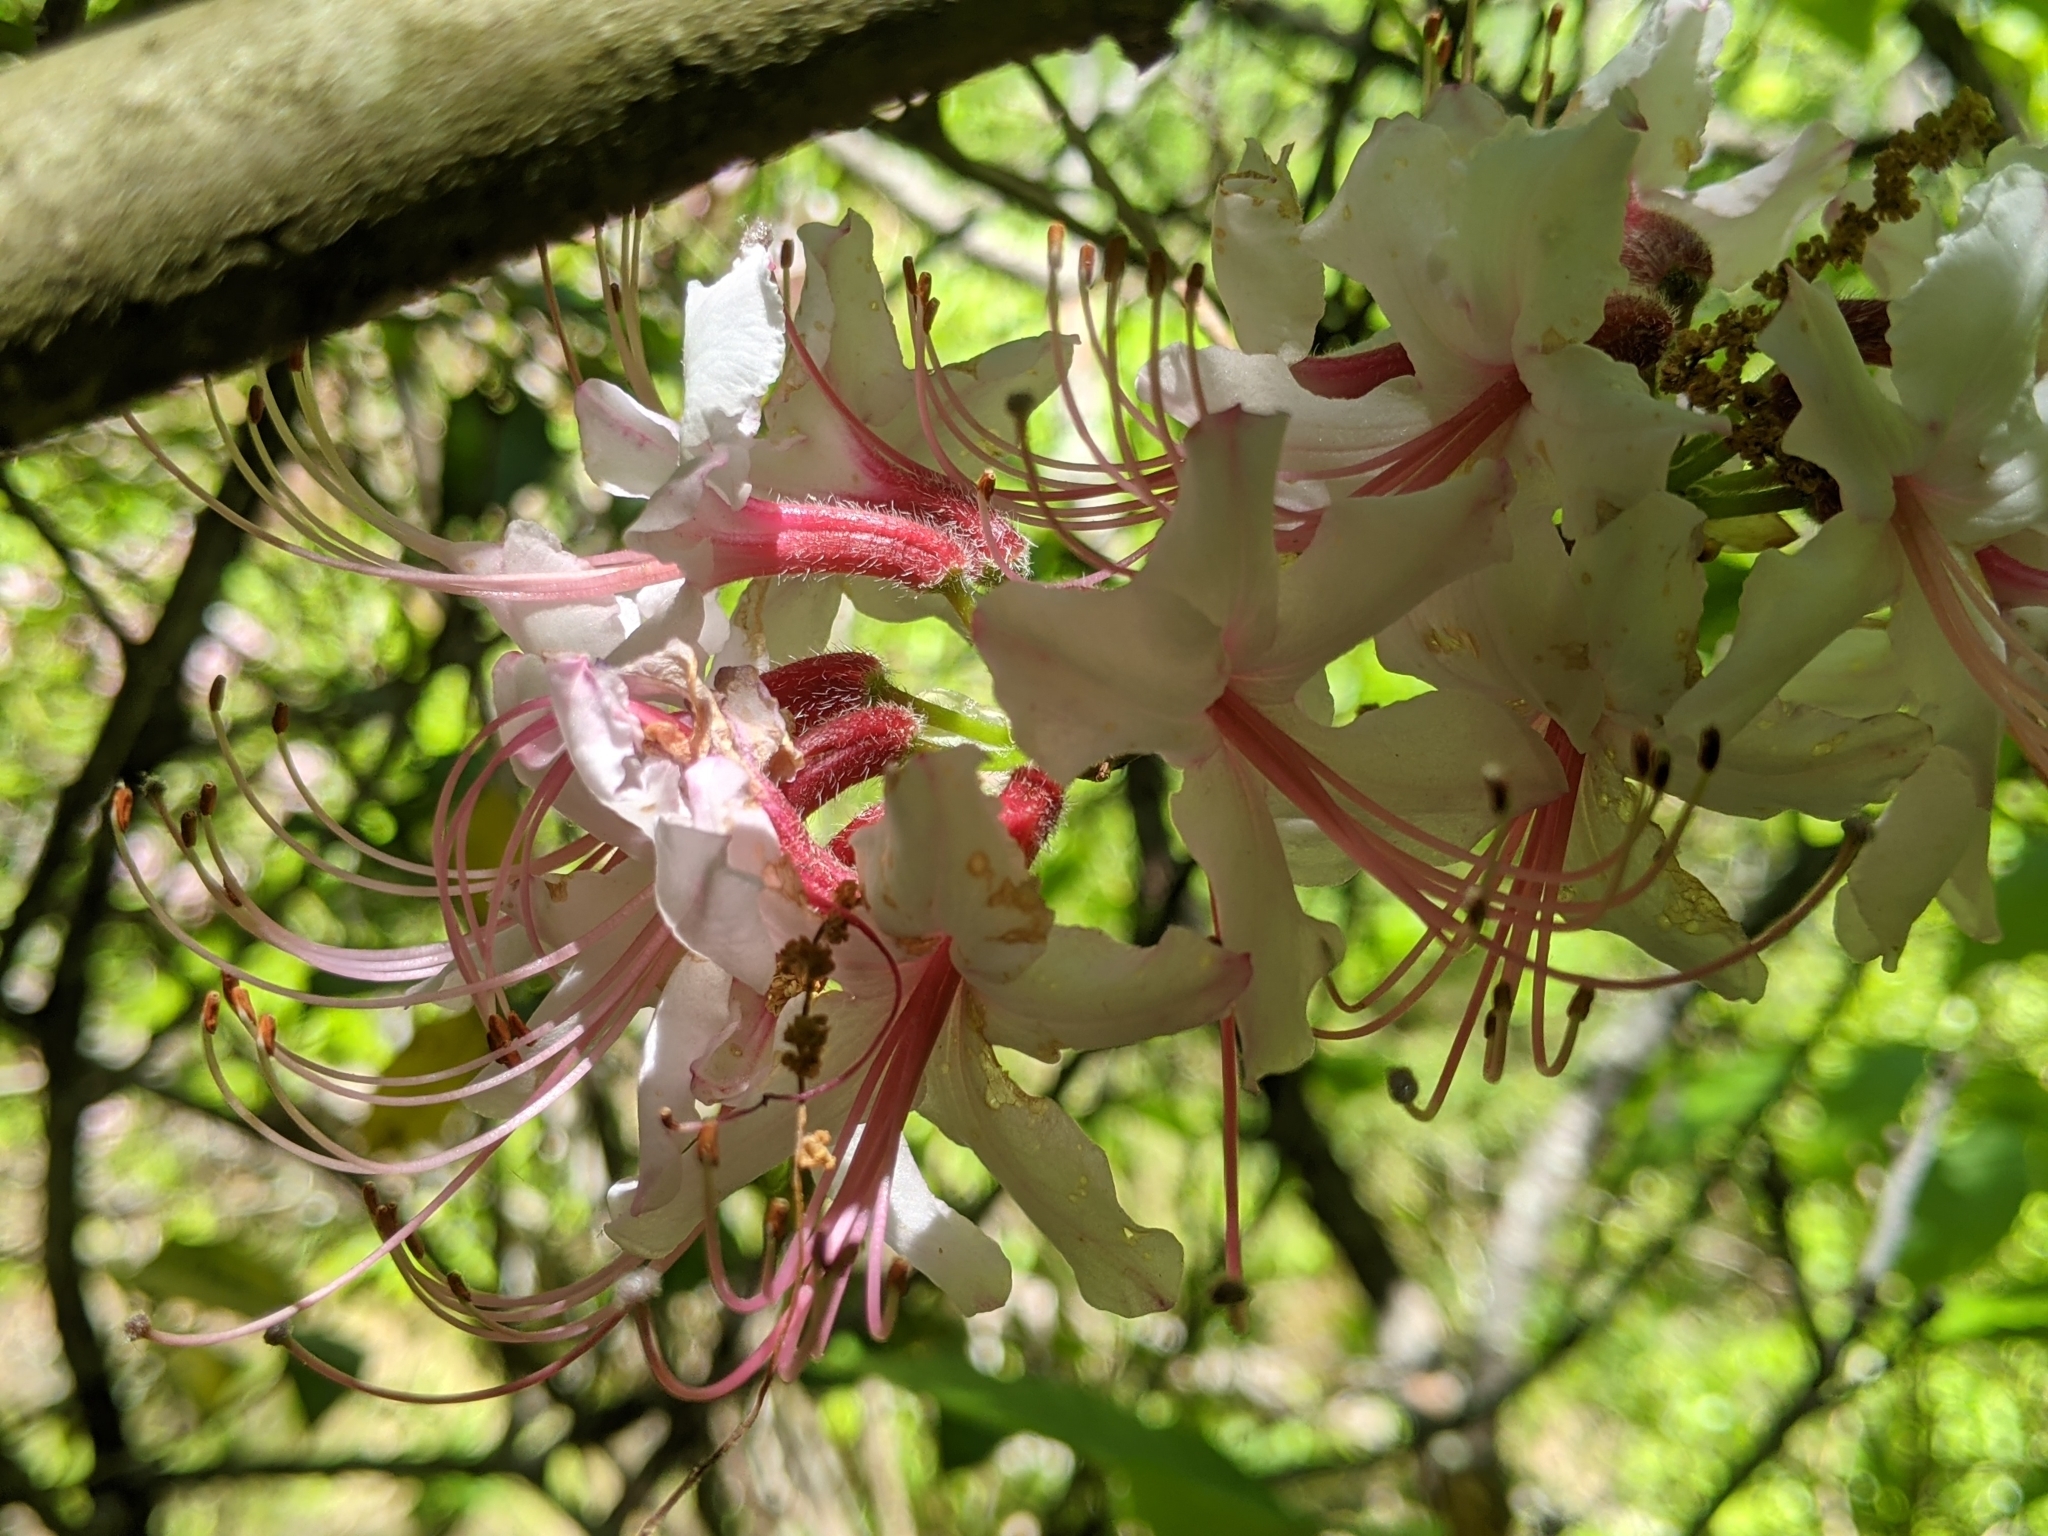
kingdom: Plantae
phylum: Tracheophyta
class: Magnoliopsida
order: Ericales
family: Ericaceae
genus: Rhododendron
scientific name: Rhododendron periclymenoides
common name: Election-pink
